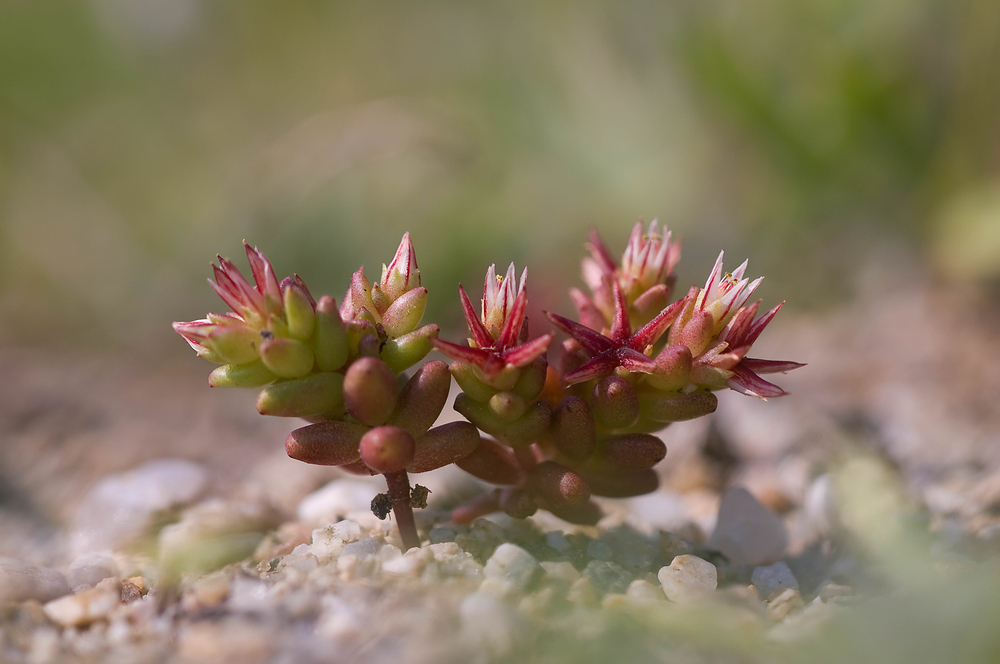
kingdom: Plantae
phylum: Tracheophyta
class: Magnoliopsida
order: Saxifragales
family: Crassulaceae
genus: Sedum
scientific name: Sedum cespitosum
